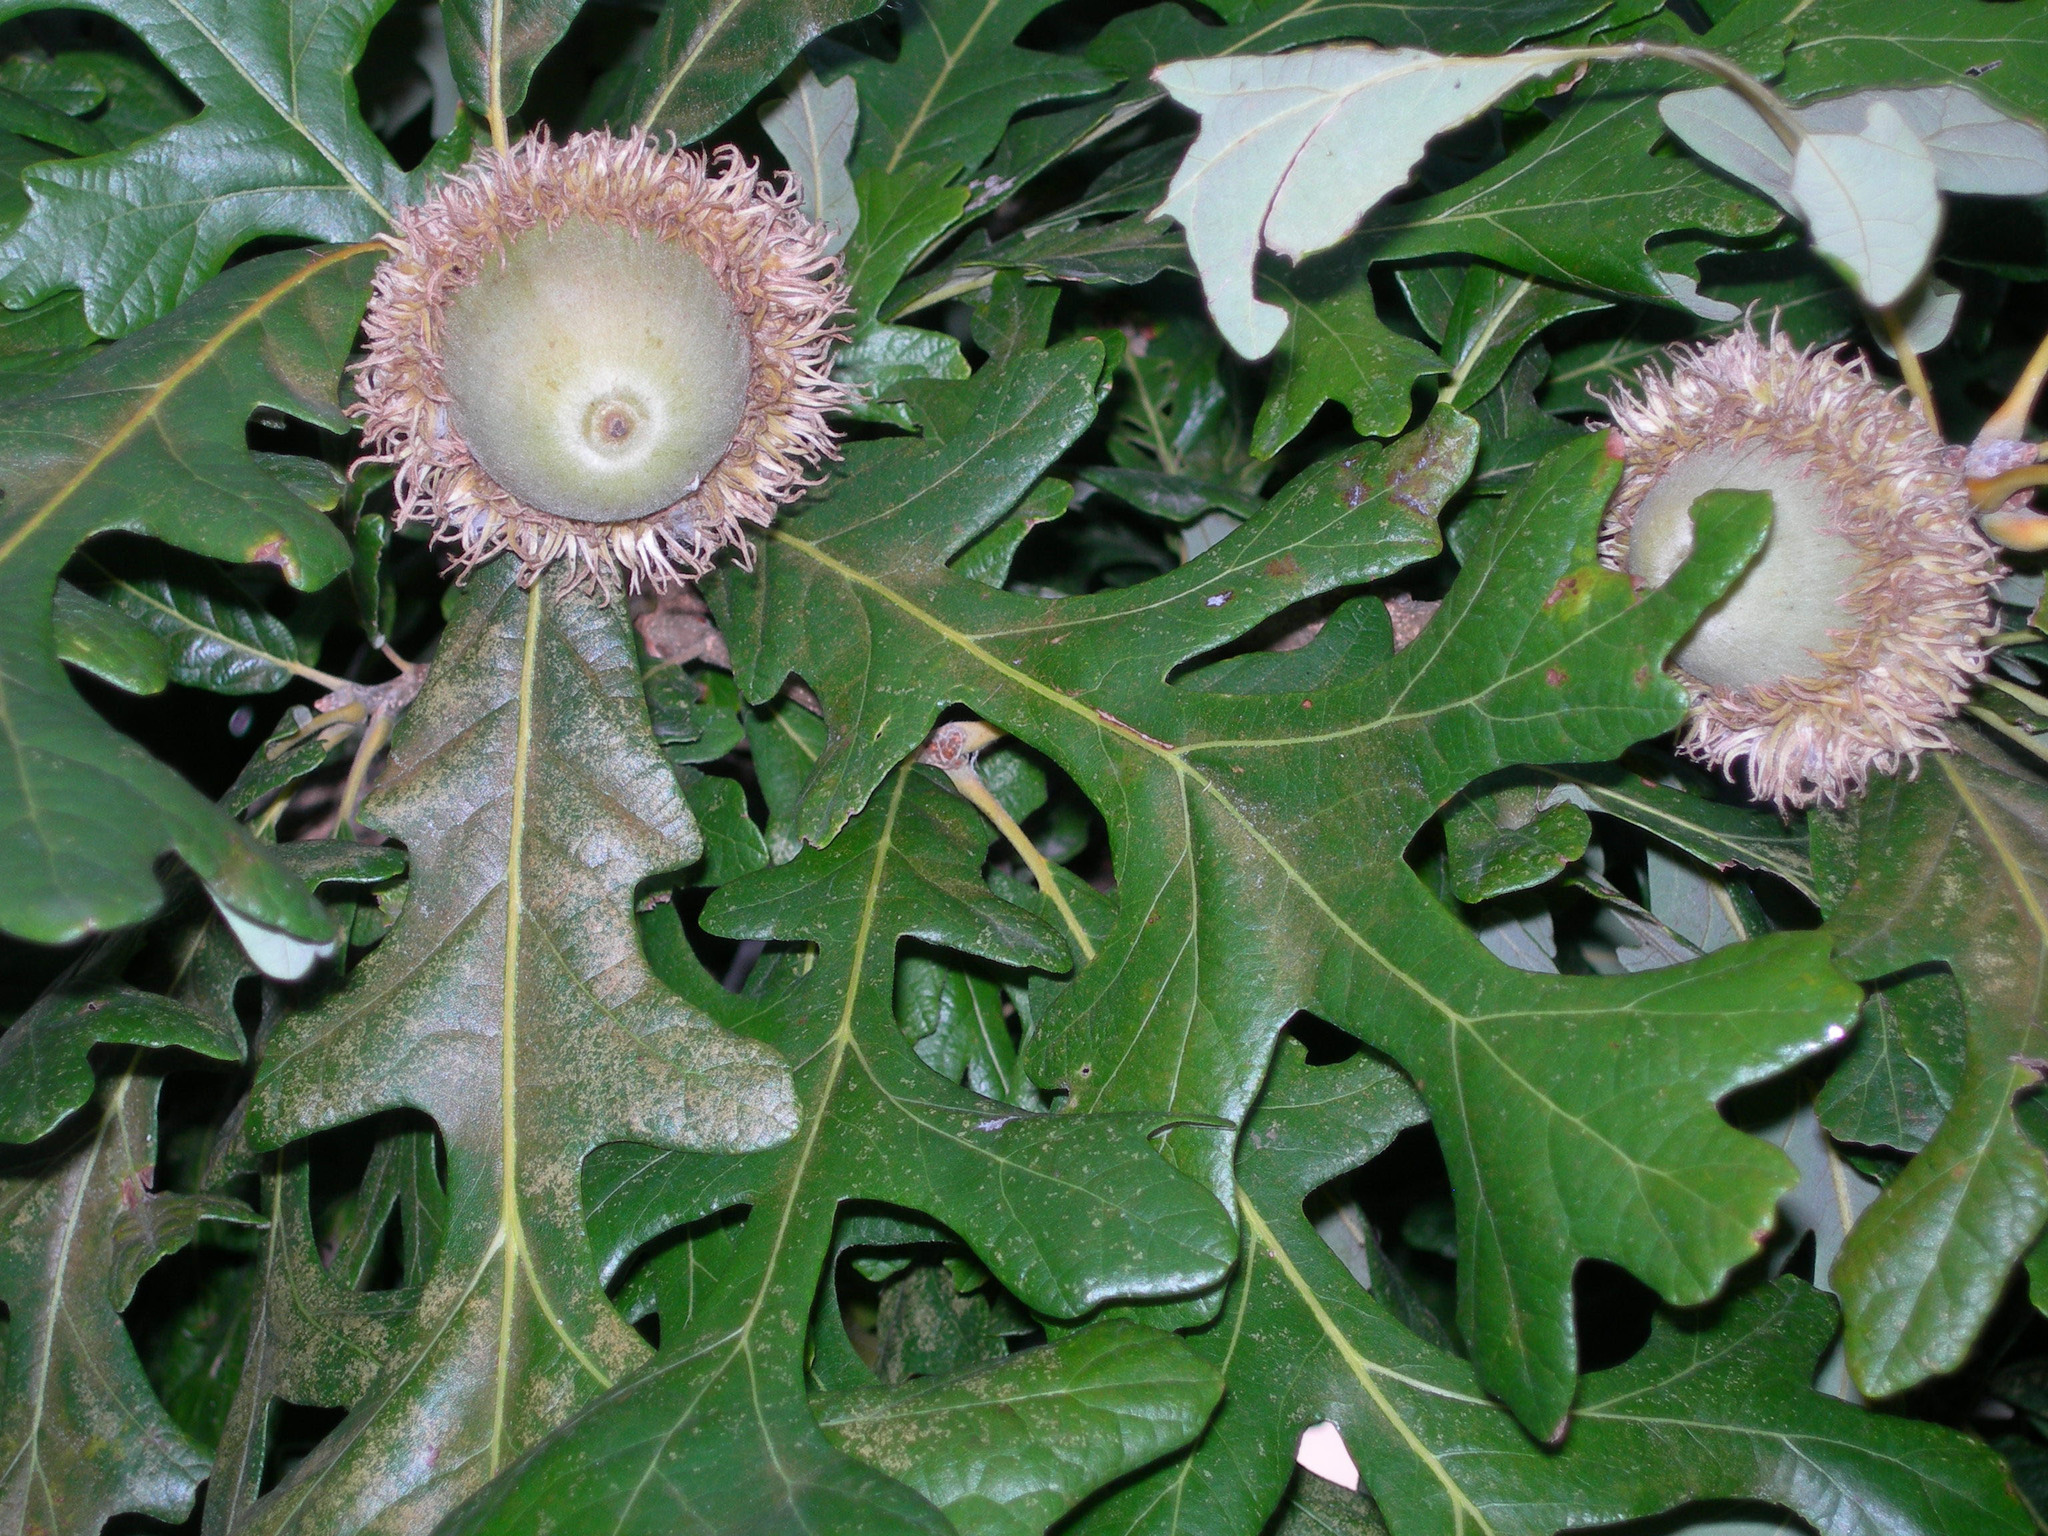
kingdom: Plantae
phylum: Tracheophyta
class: Magnoliopsida
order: Fagales
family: Fagaceae
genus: Quercus
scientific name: Quercus macrocarpa
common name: Bur oak
